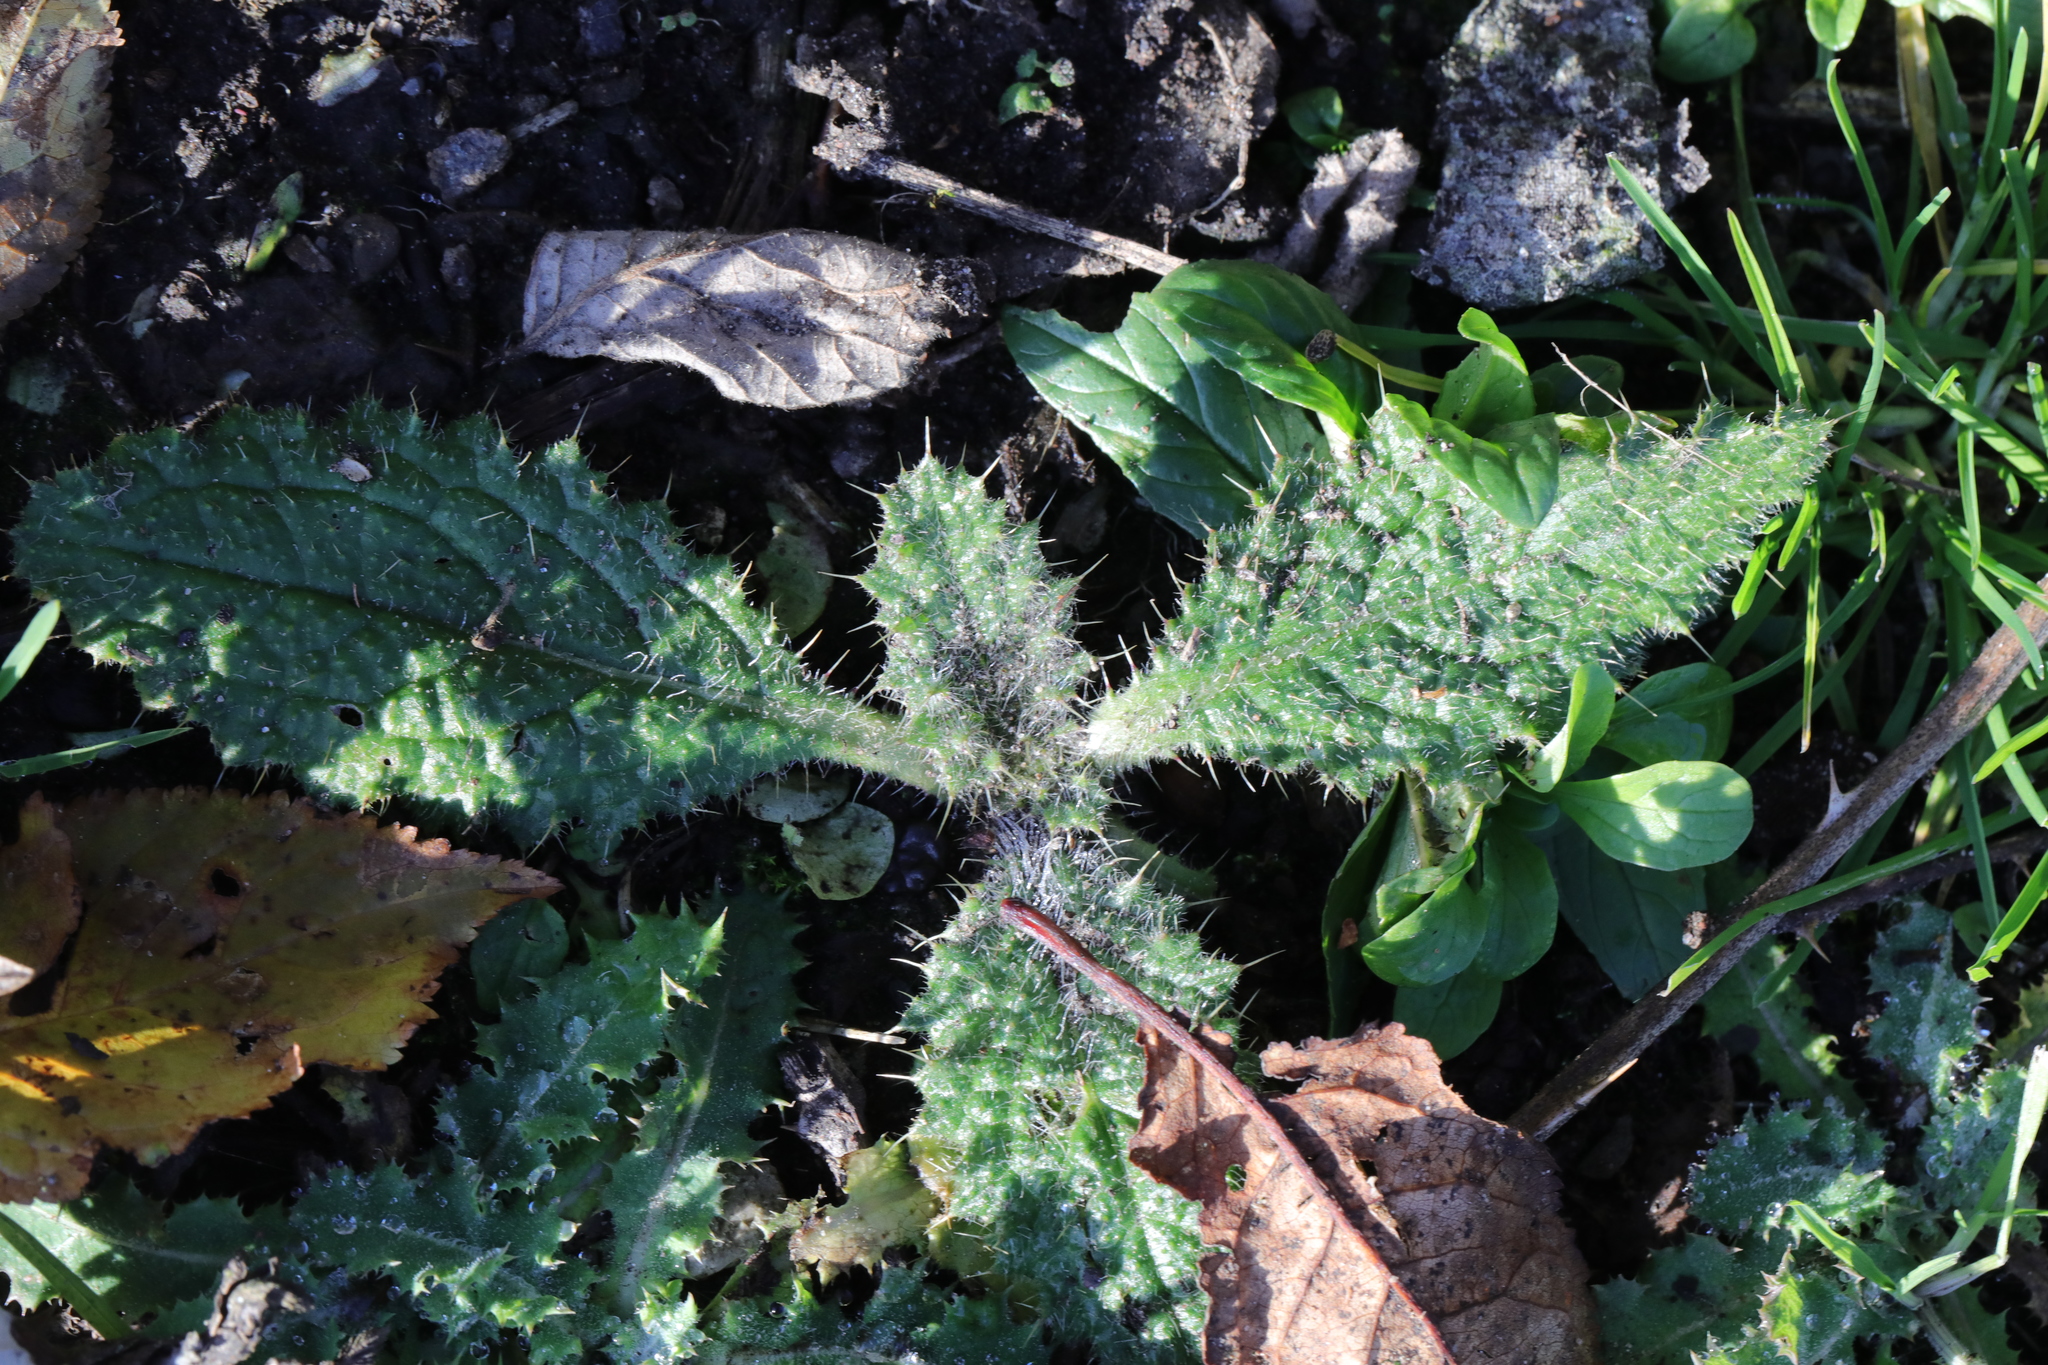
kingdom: Plantae
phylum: Tracheophyta
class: Magnoliopsida
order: Asterales
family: Asteraceae
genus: Cirsium
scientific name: Cirsium vulgare
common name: Bull thistle
